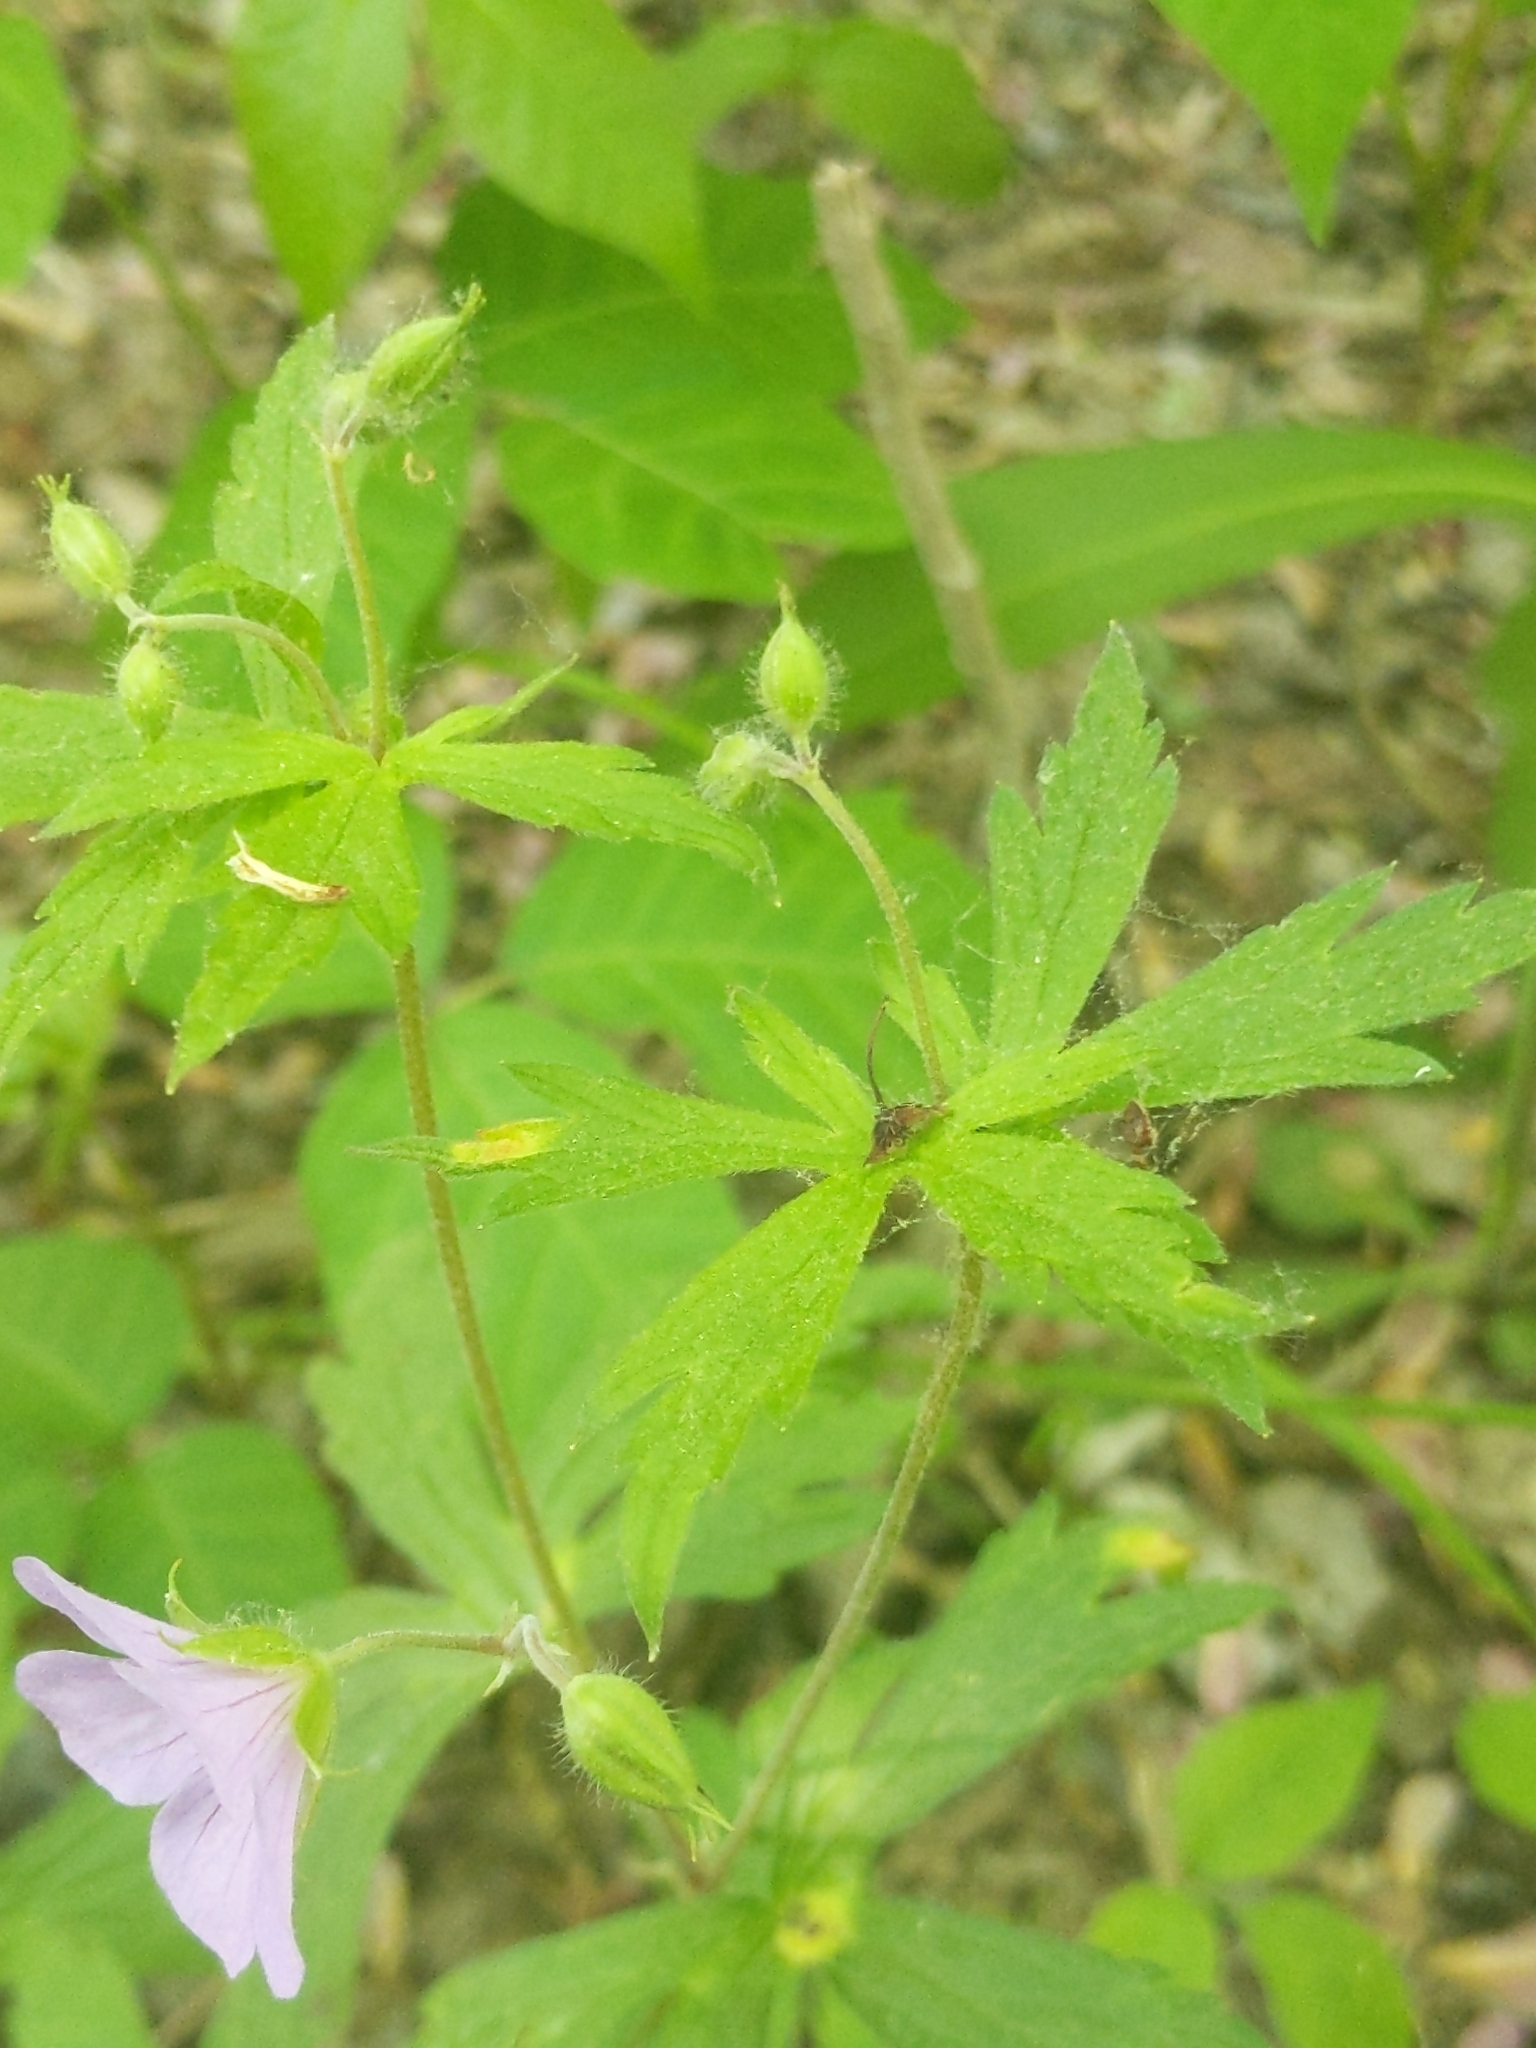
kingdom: Plantae
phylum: Tracheophyta
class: Magnoliopsida
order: Geraniales
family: Geraniaceae
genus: Geranium
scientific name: Geranium maculatum
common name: Spotted geranium
